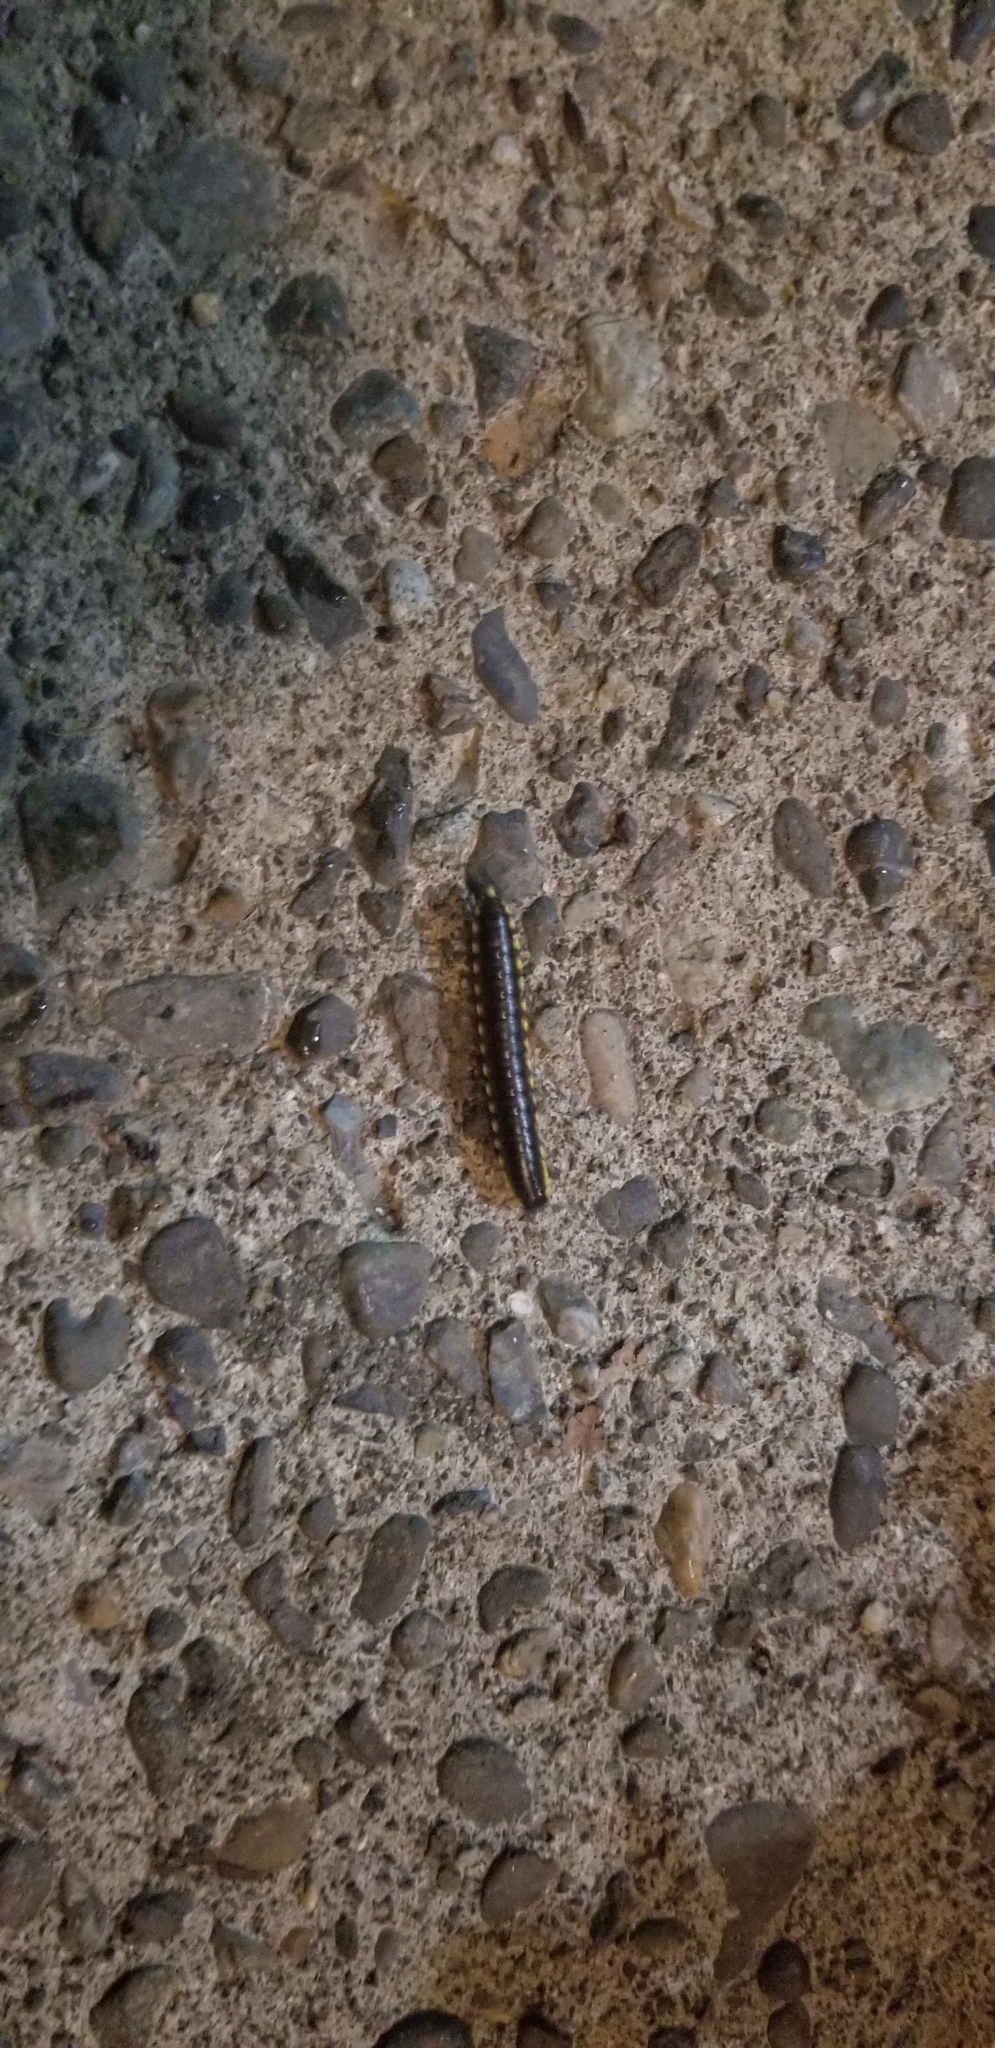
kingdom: Animalia
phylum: Arthropoda
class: Diplopoda
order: Polydesmida
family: Xystodesmidae
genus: Harpaphe
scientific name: Harpaphe haydeniana
